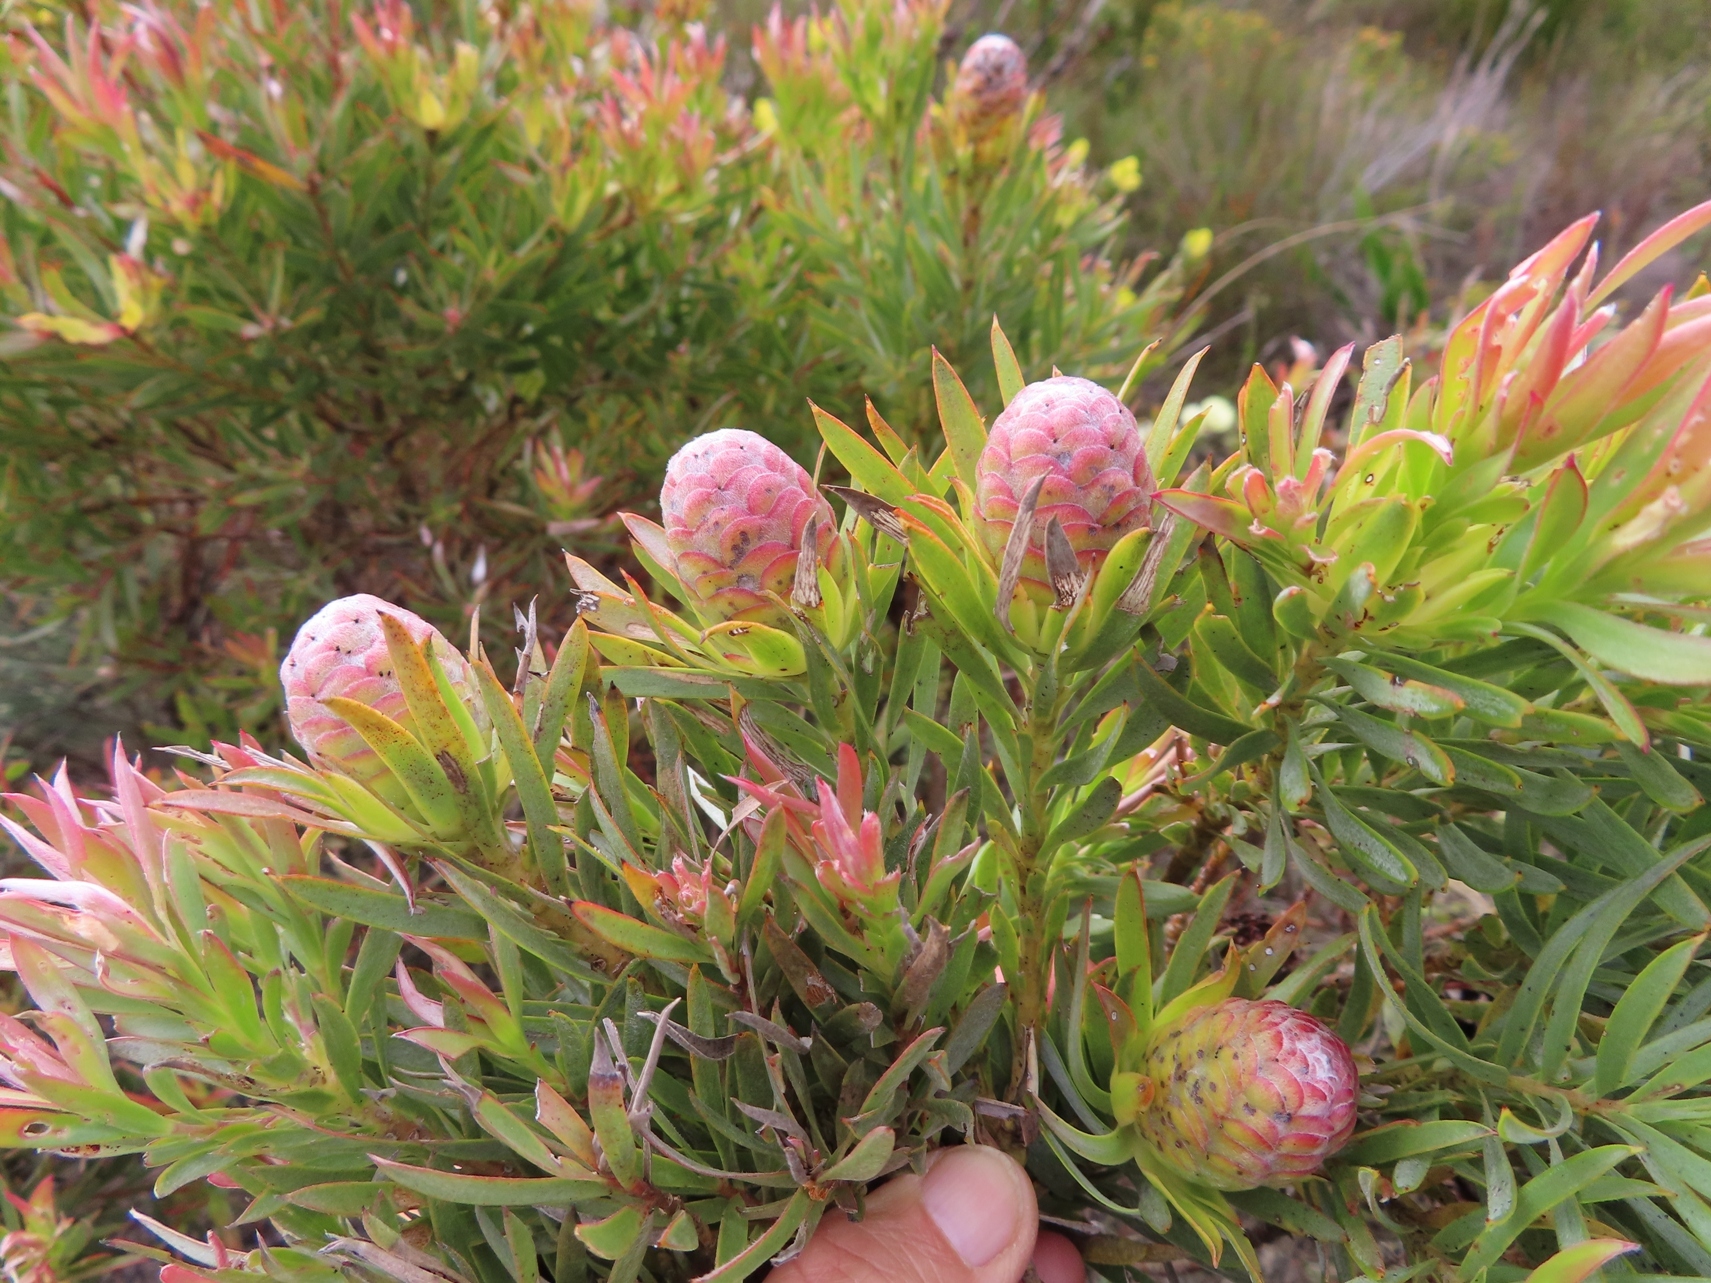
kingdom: Plantae
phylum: Tracheophyta
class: Magnoliopsida
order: Proteales
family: Proteaceae
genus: Leucadendron
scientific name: Leucadendron xanthoconus
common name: Sickle-leaf conebush
